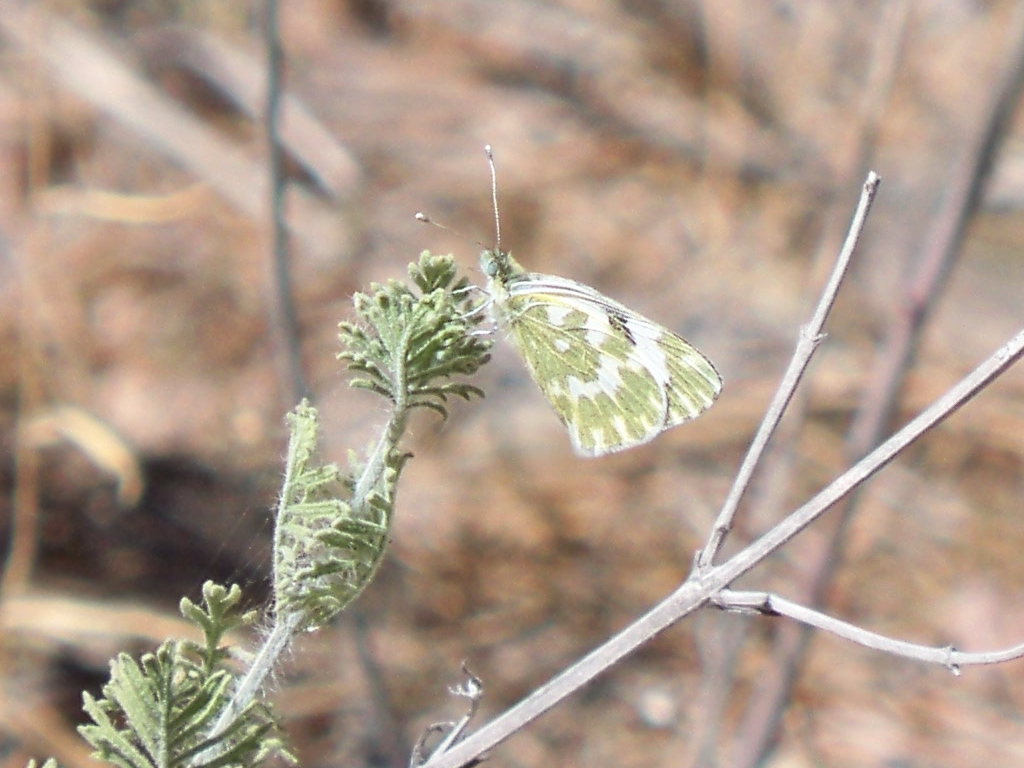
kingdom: Animalia
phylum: Arthropoda
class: Insecta
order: Lepidoptera
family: Pieridae
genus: Pontia
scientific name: Pontia daplidice
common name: Bath white
